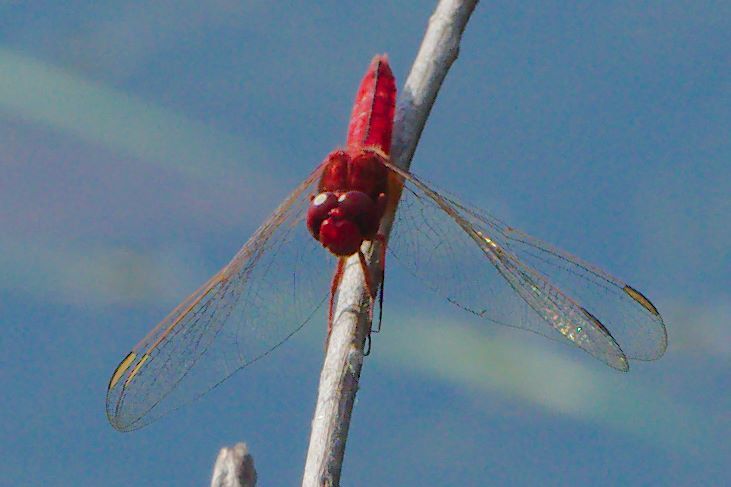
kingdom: Animalia
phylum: Arthropoda
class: Insecta
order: Odonata
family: Libellulidae
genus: Crocothemis
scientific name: Crocothemis servilia
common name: Scarlet skimmer
